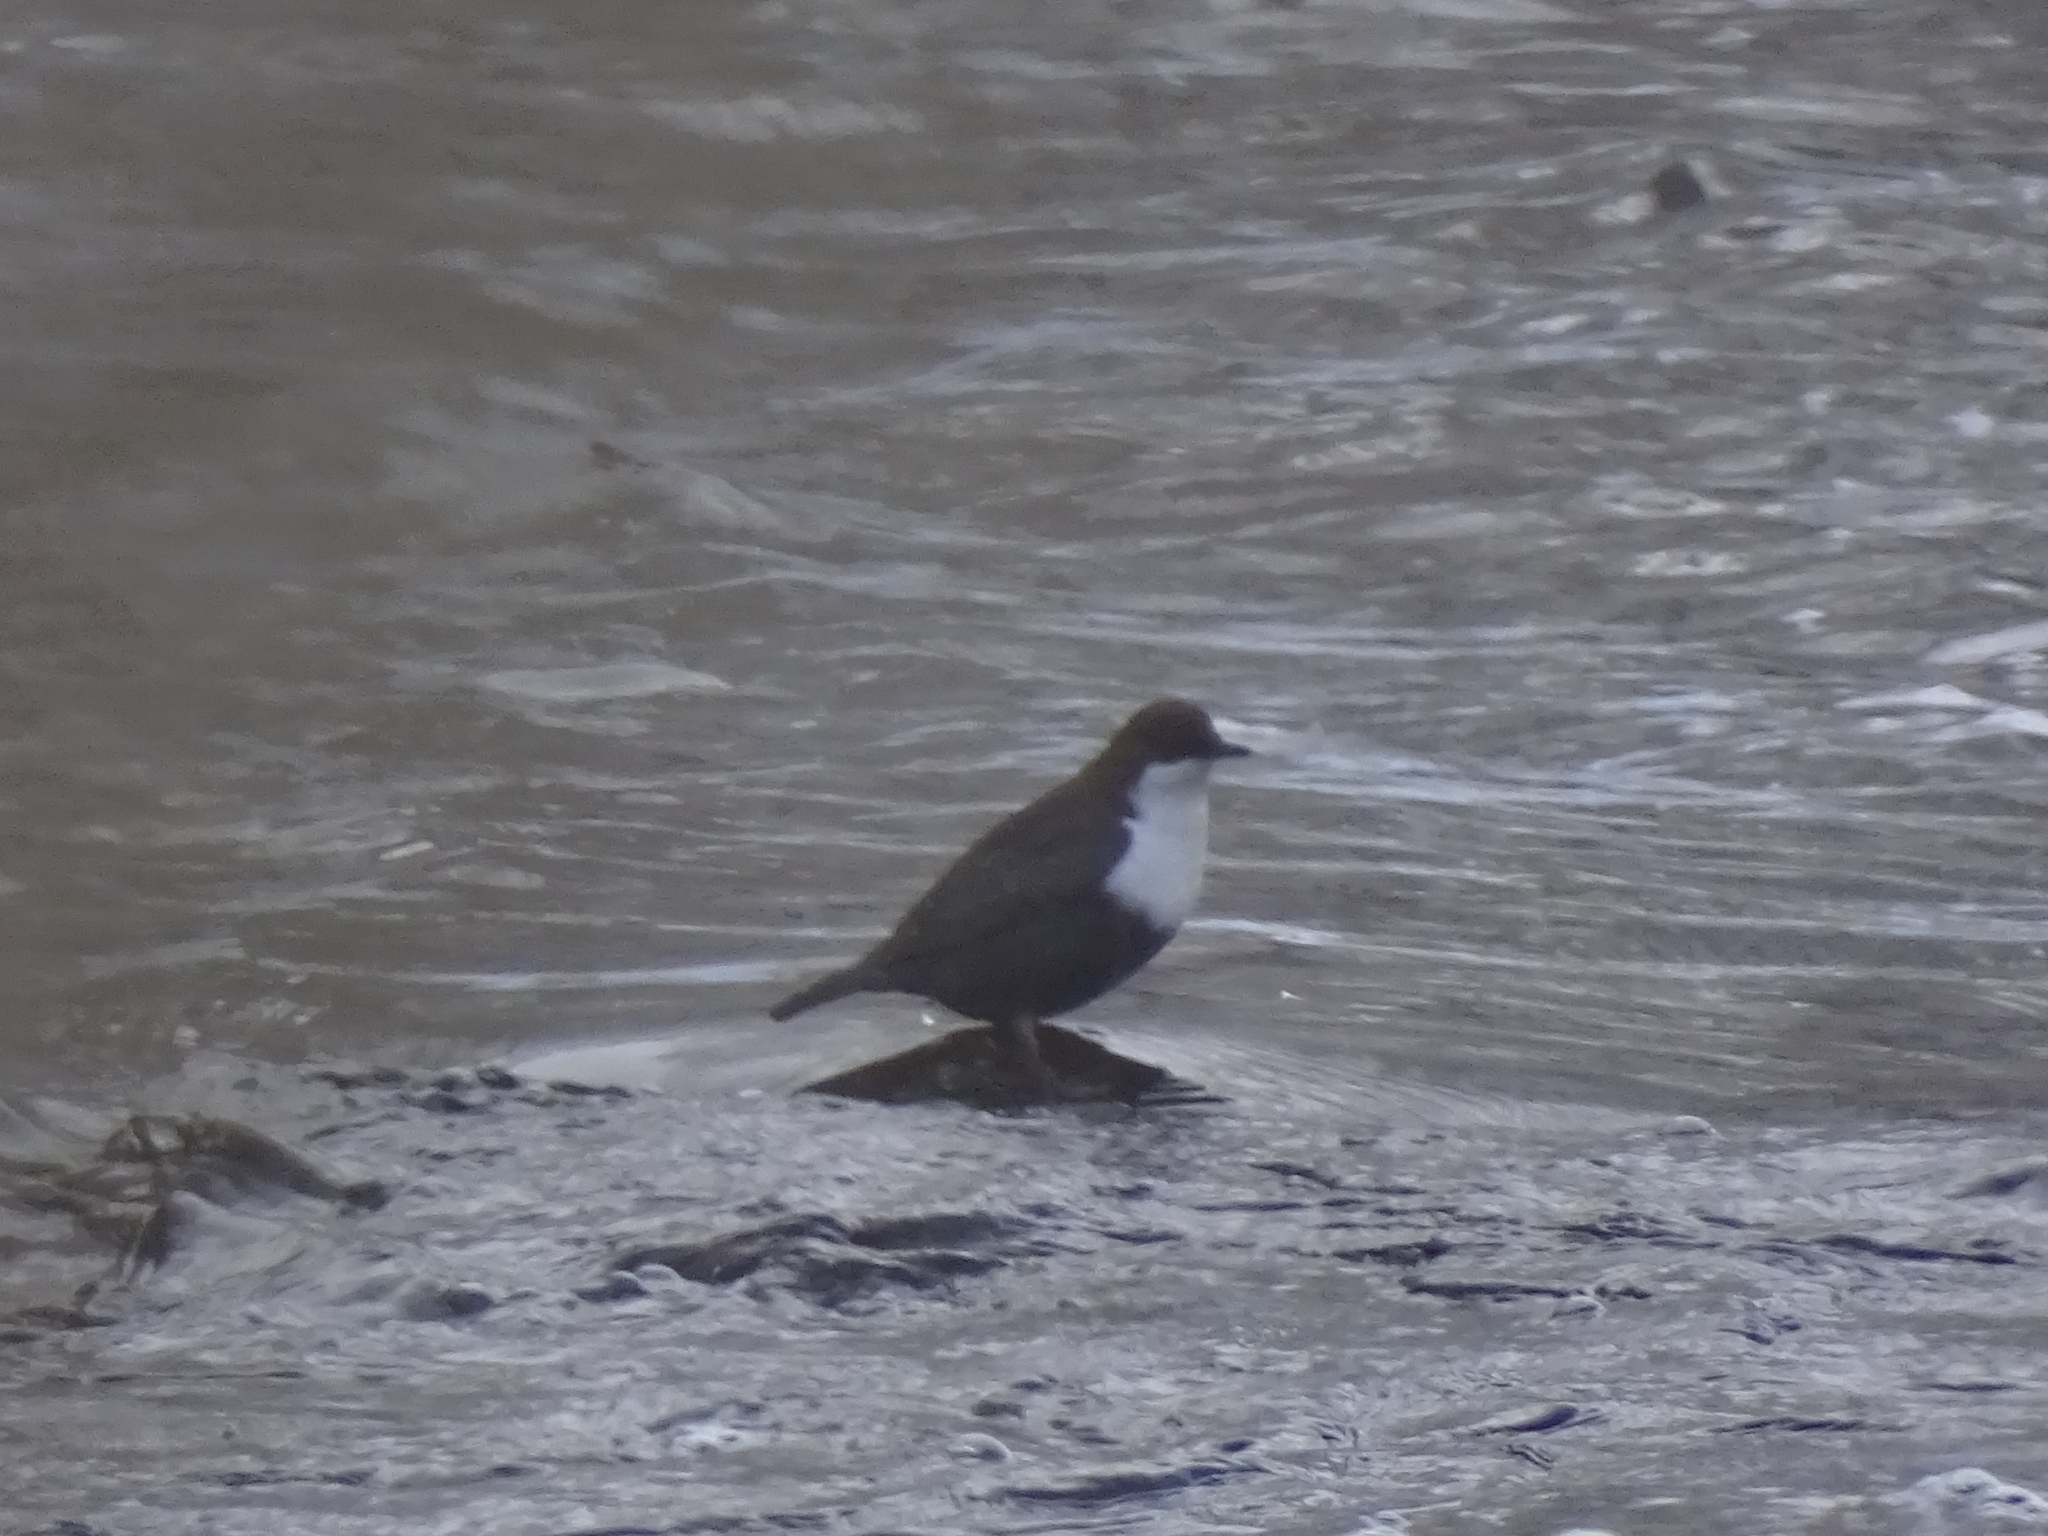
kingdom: Animalia
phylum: Chordata
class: Aves
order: Passeriformes
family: Cinclidae
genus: Cinclus
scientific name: Cinclus cinclus
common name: White-throated dipper
